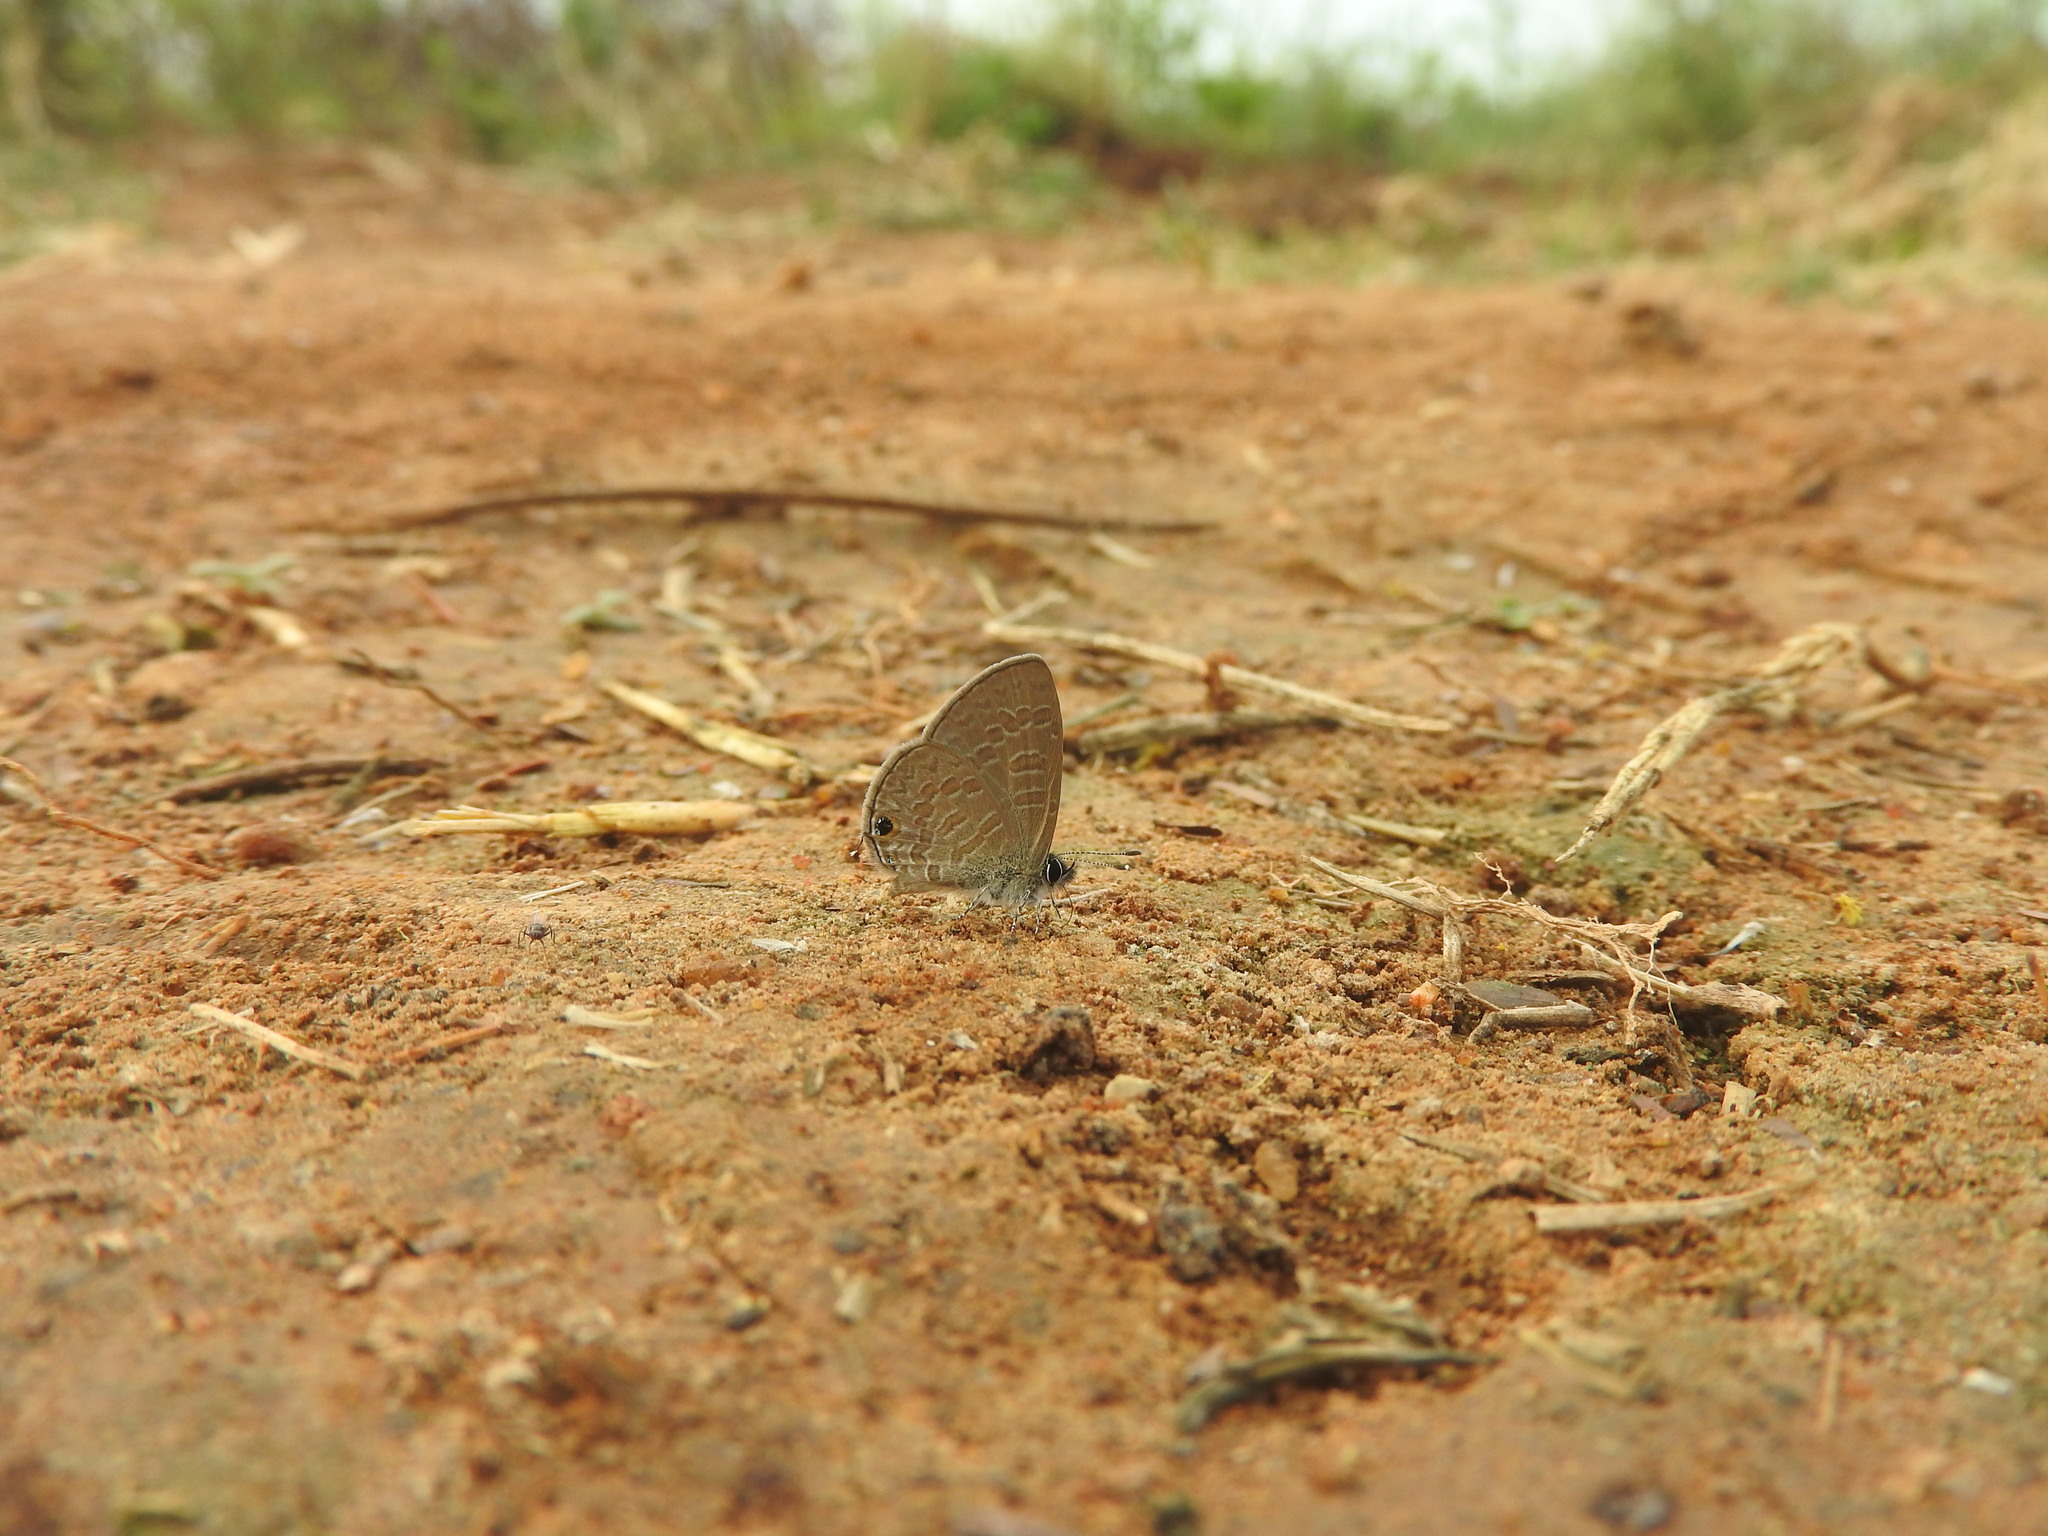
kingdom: Animalia
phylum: Arthropoda
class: Insecta
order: Lepidoptera
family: Lycaenidae
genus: Prosotas
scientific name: Prosotas nora
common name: Common line blue
